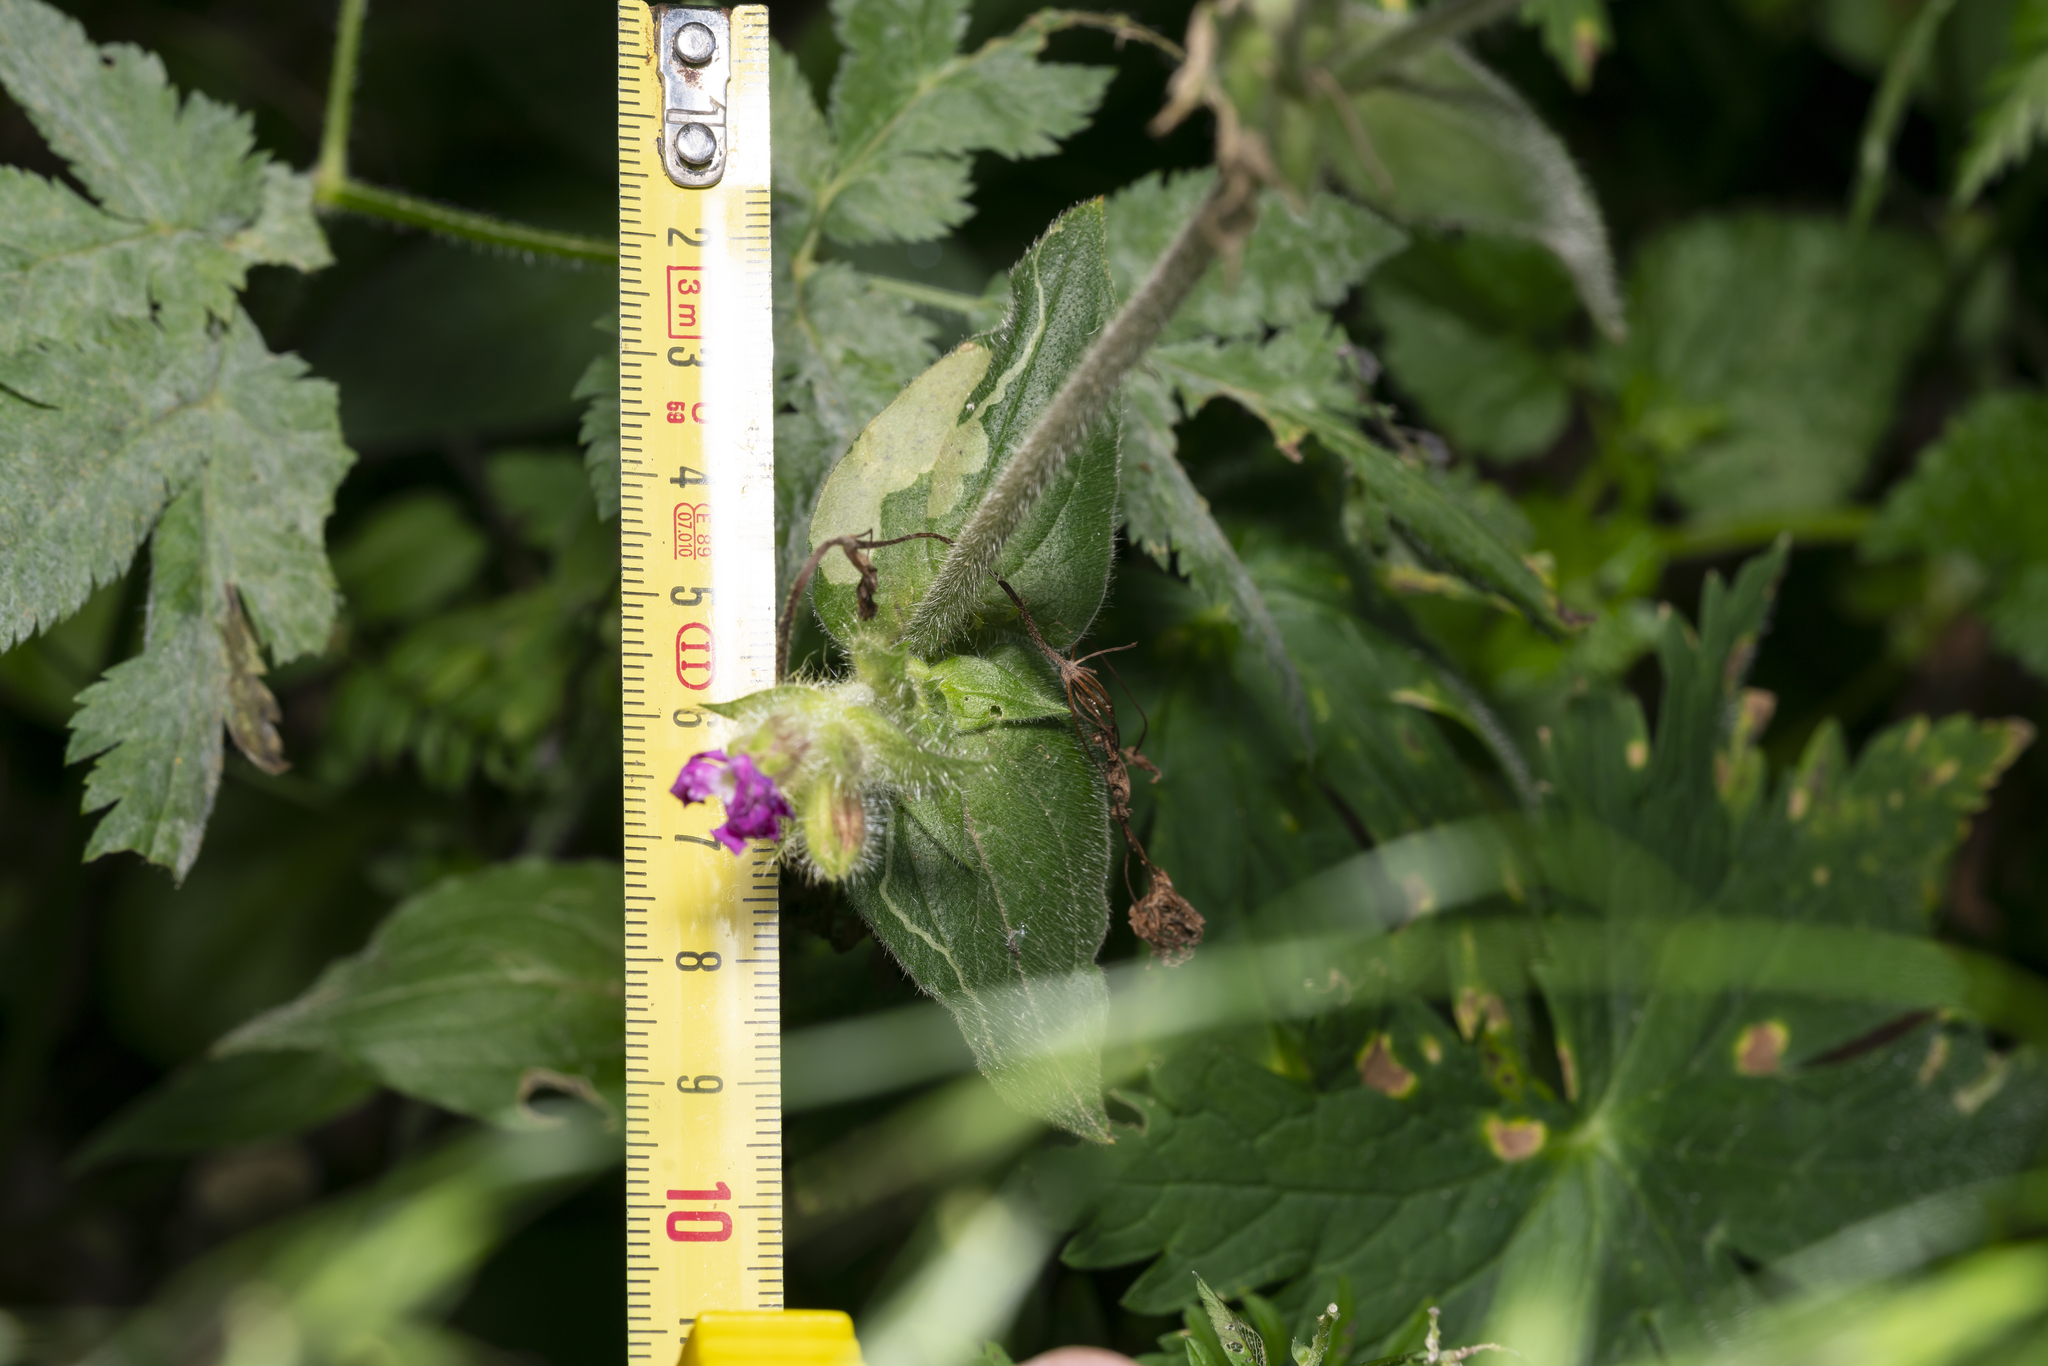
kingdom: Plantae
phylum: Tracheophyta
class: Magnoliopsida
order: Caryophyllales
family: Caryophyllaceae
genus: Silene
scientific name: Silene dioica
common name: Red campion
